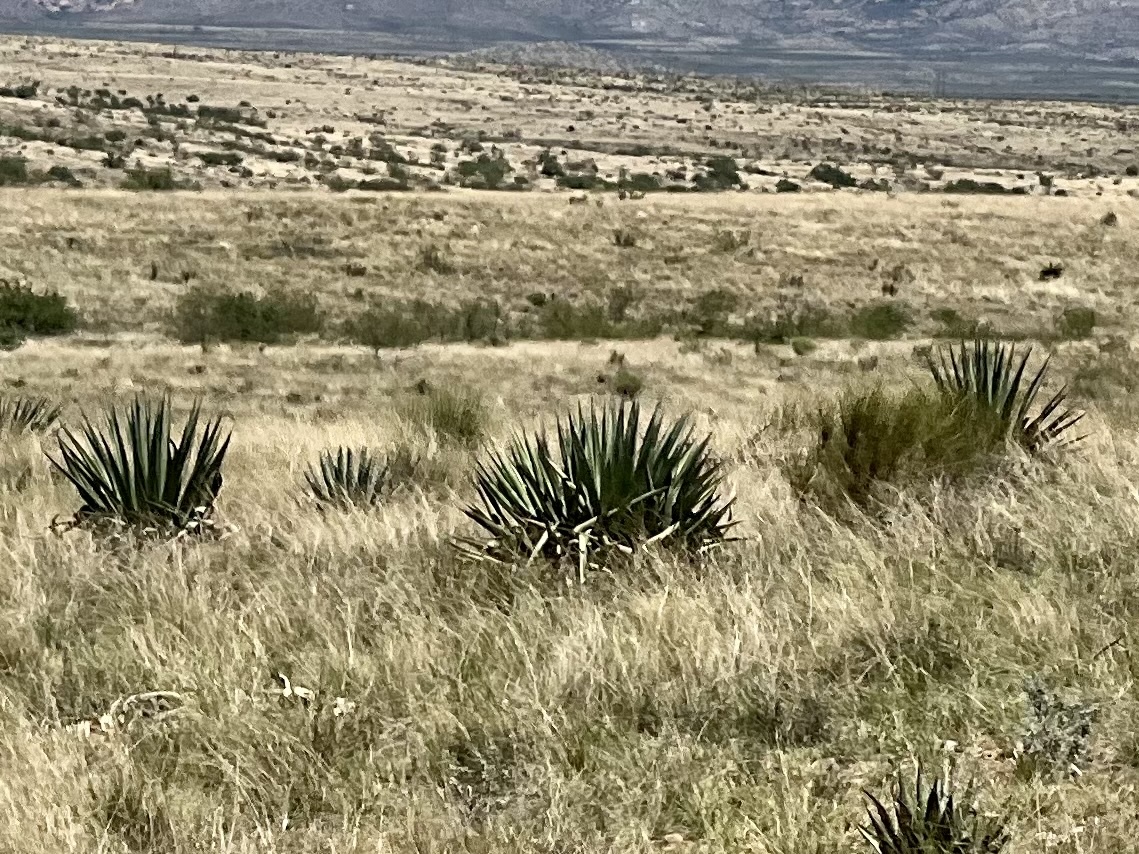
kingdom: Plantae
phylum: Tracheophyta
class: Liliopsida
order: Asparagales
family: Asparagaceae
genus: Agave
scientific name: Agave palmeri
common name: Palmer agave
